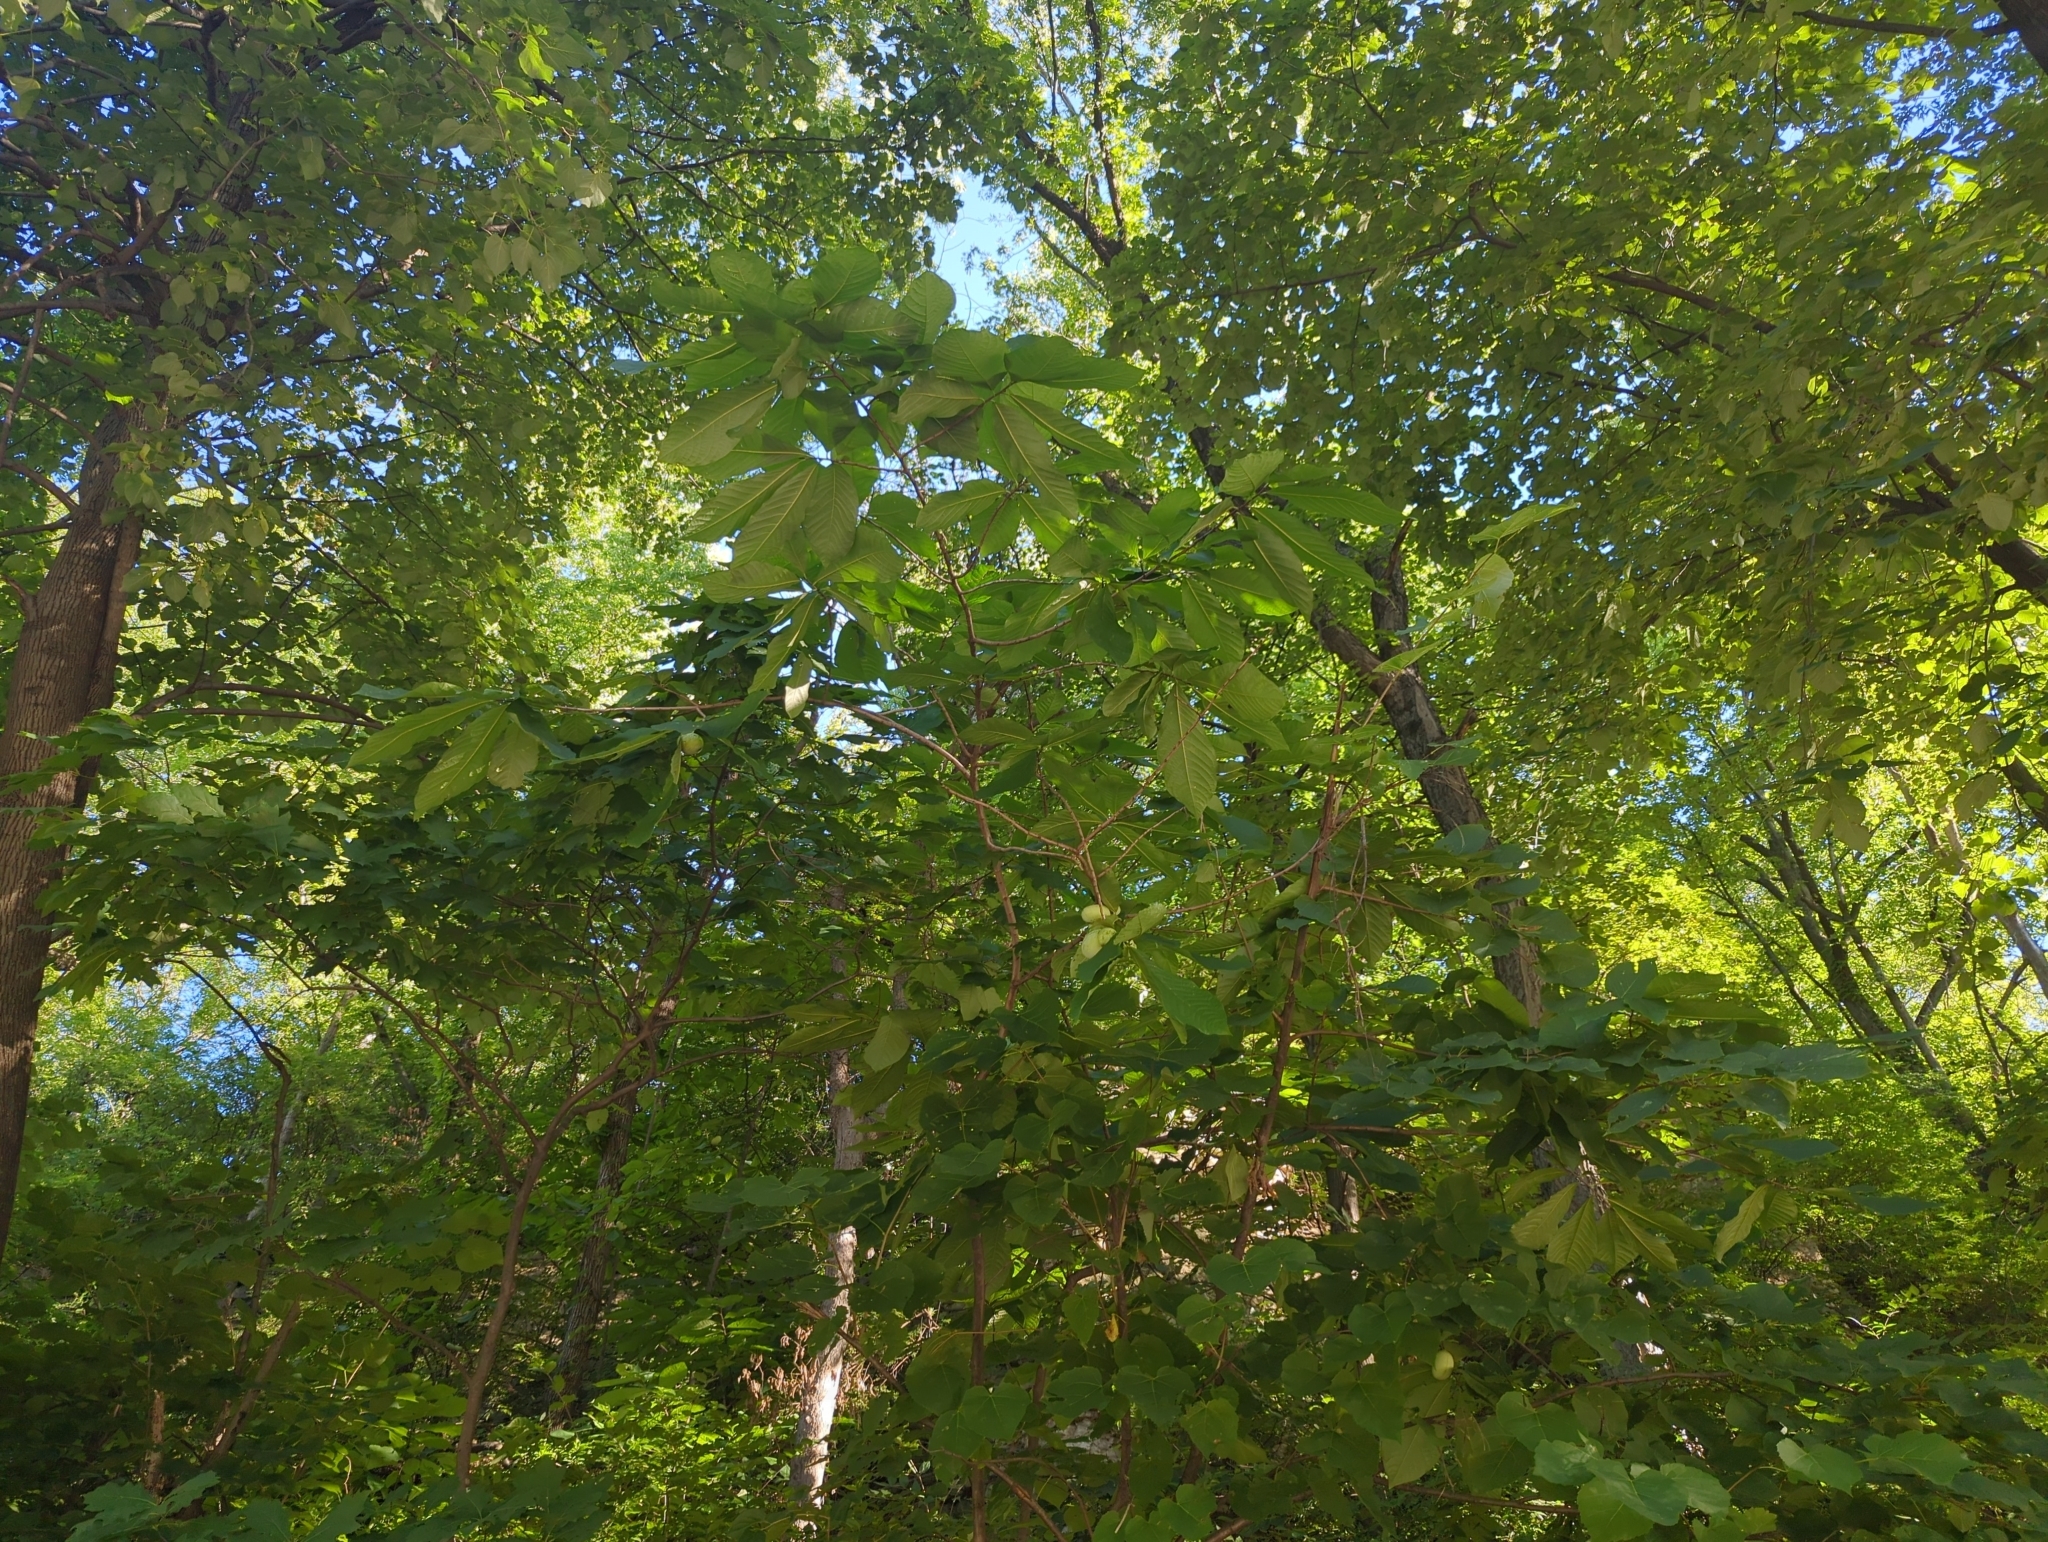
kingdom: Plantae
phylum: Tracheophyta
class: Magnoliopsida
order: Magnoliales
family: Annonaceae
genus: Asimina
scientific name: Asimina triloba
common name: Dog-banana
